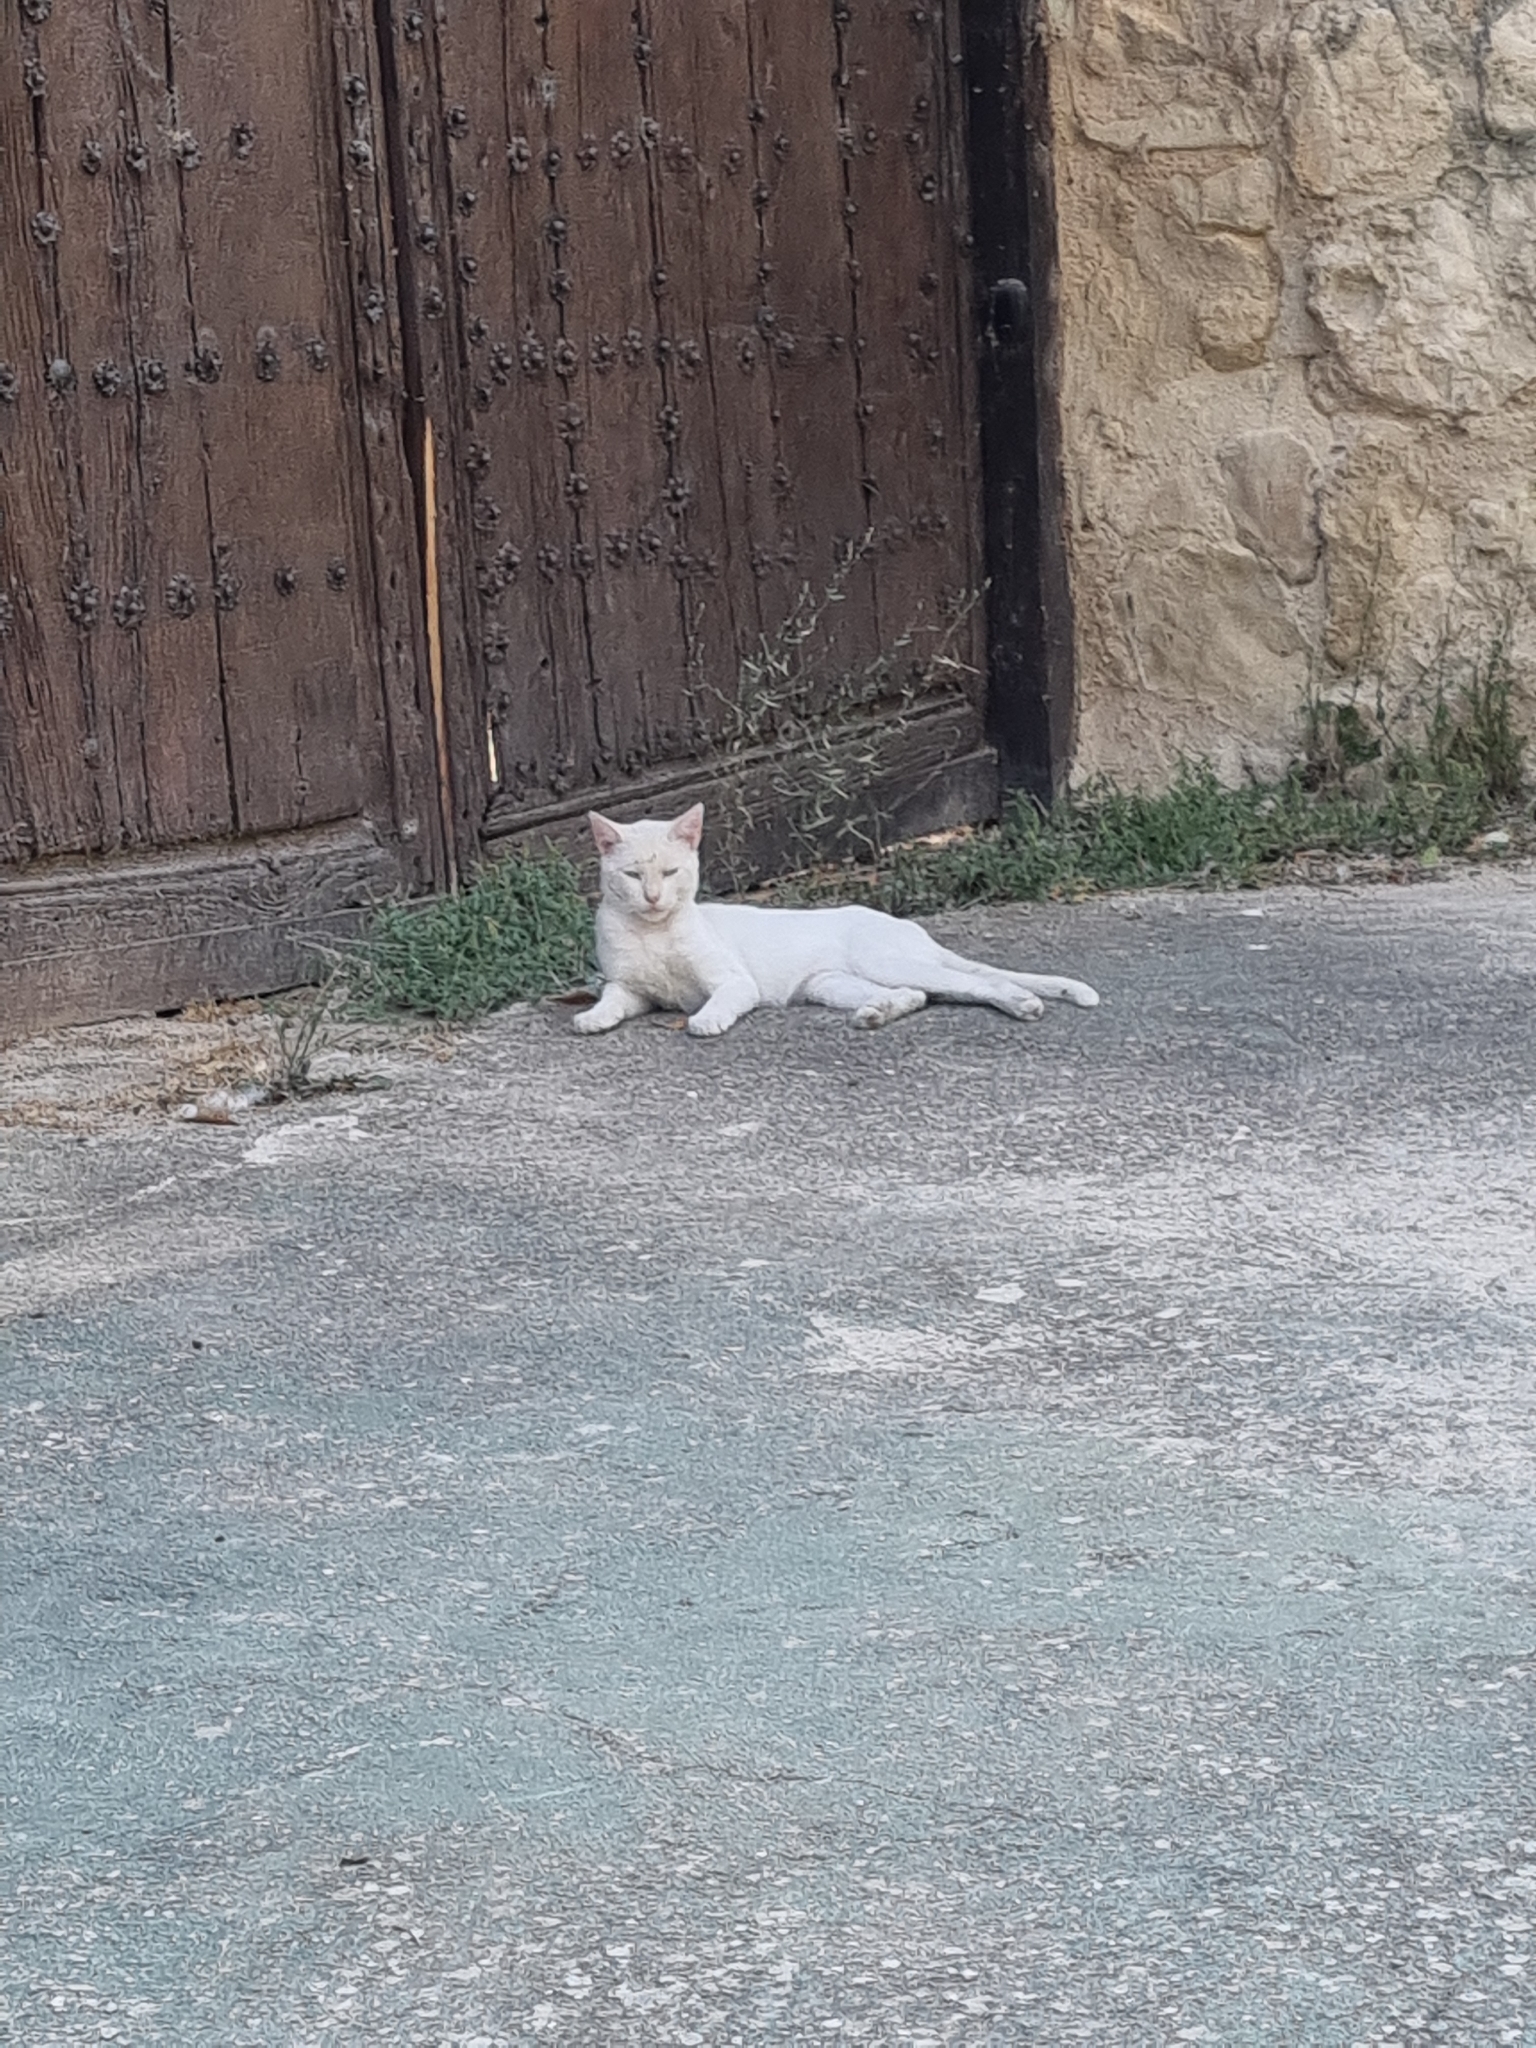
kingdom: Animalia
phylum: Chordata
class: Mammalia
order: Carnivora
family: Felidae
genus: Felis
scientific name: Felis catus
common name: Domestic cat
